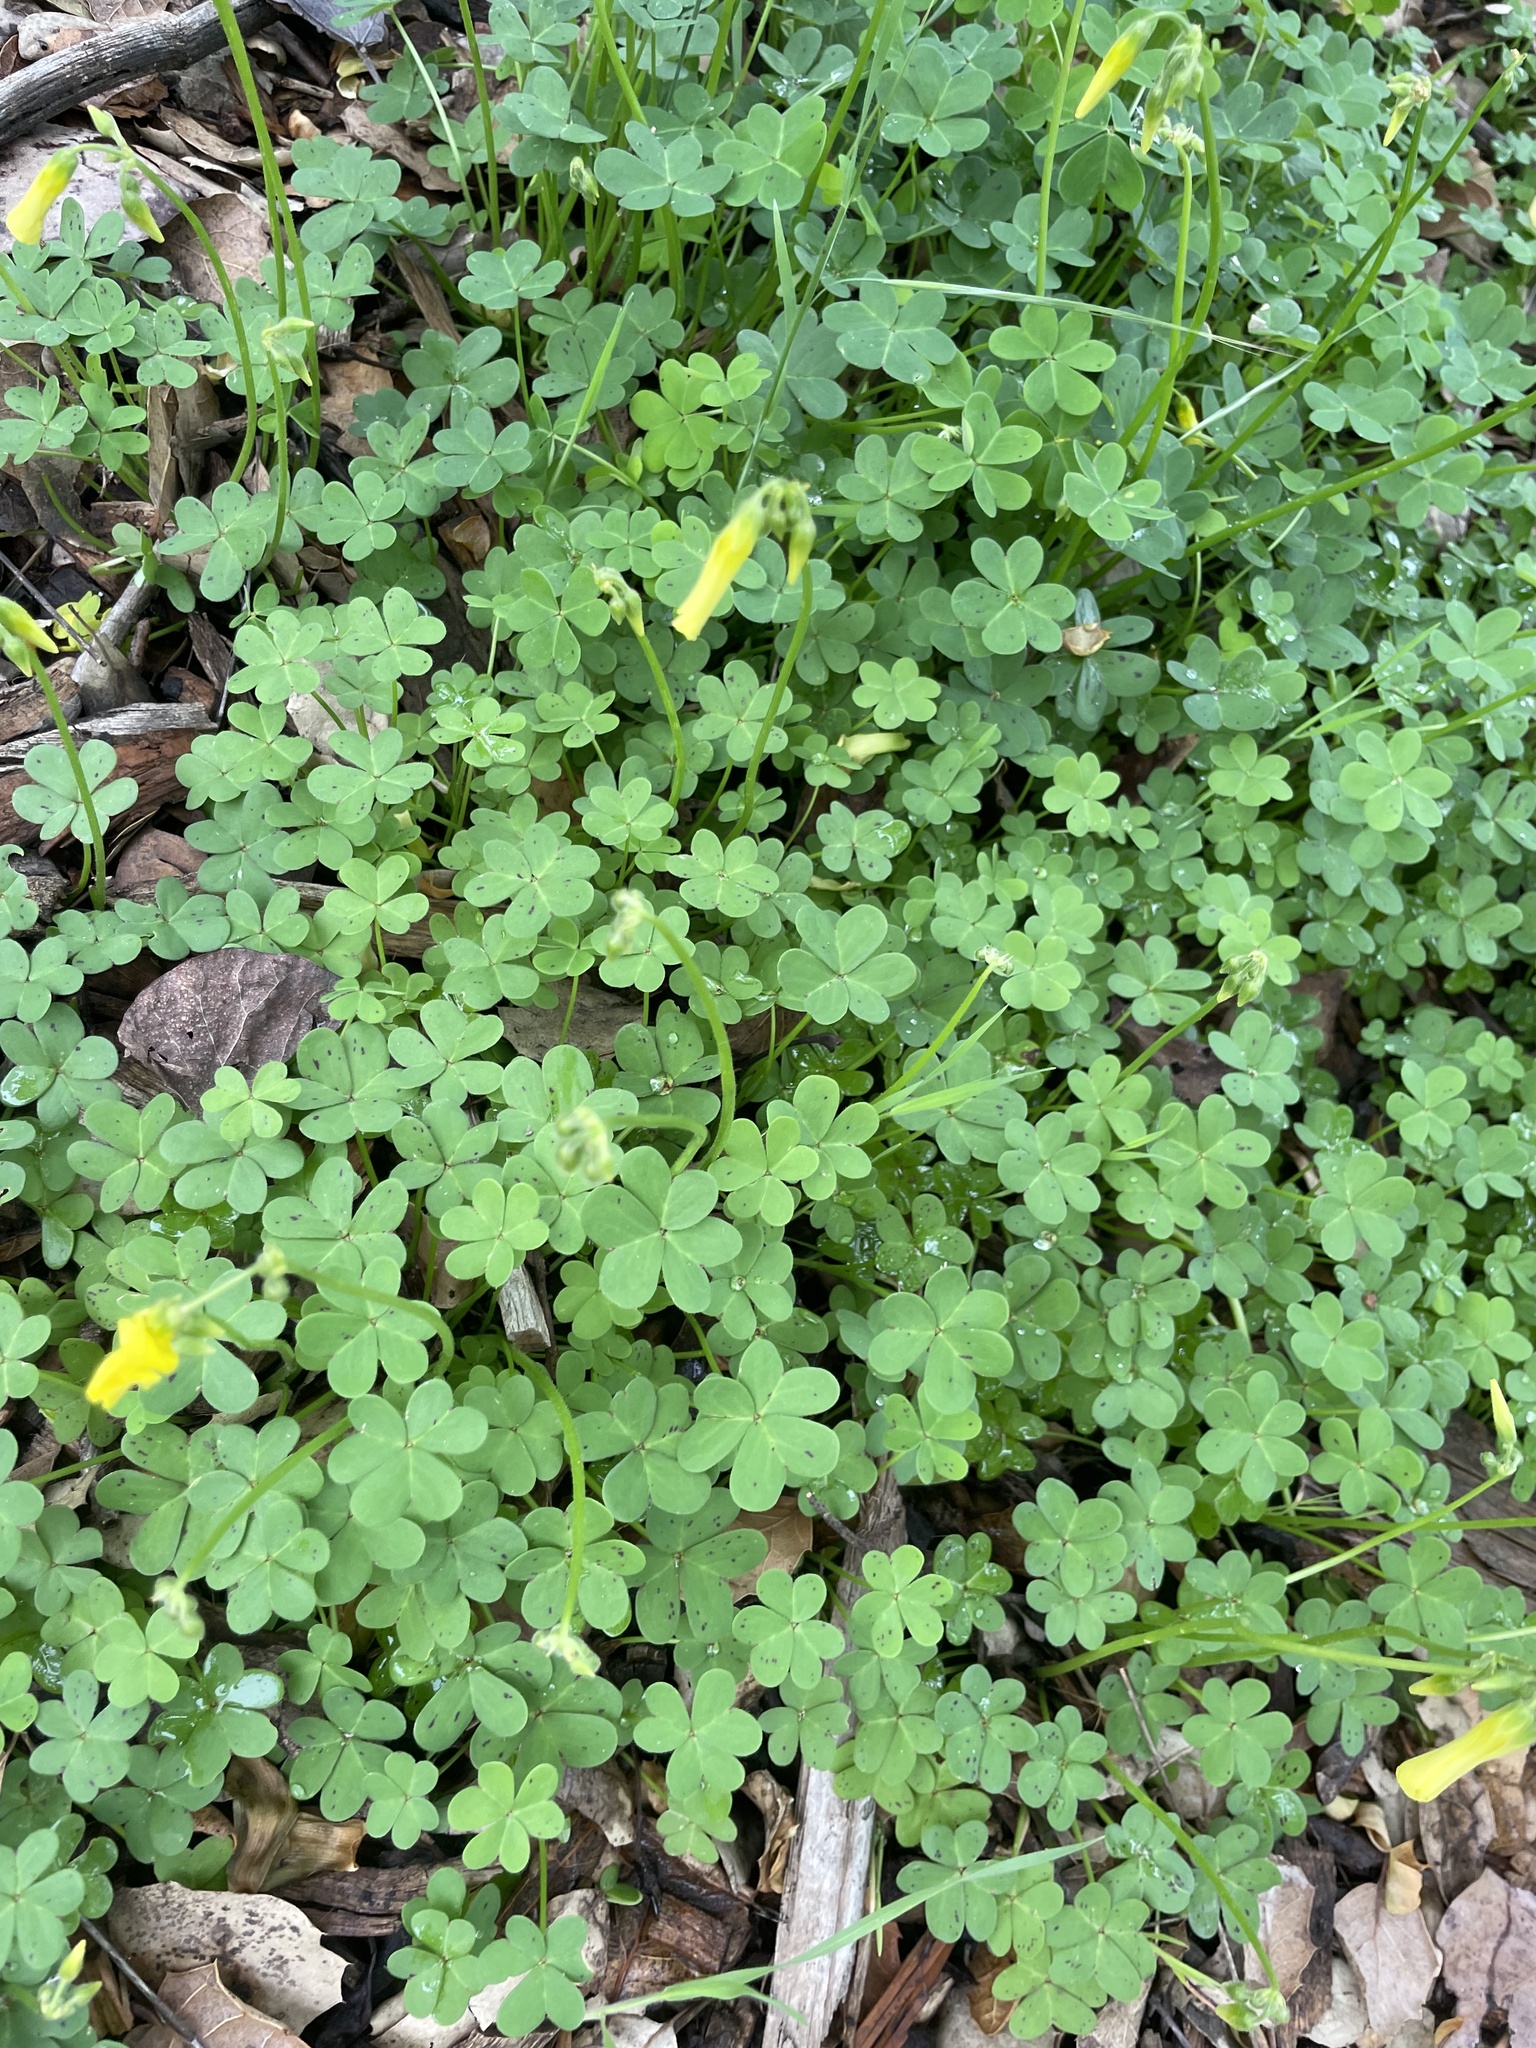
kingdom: Plantae
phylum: Tracheophyta
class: Magnoliopsida
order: Oxalidales
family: Oxalidaceae
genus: Oxalis
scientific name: Oxalis pes-caprae
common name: Bermuda-buttercup
